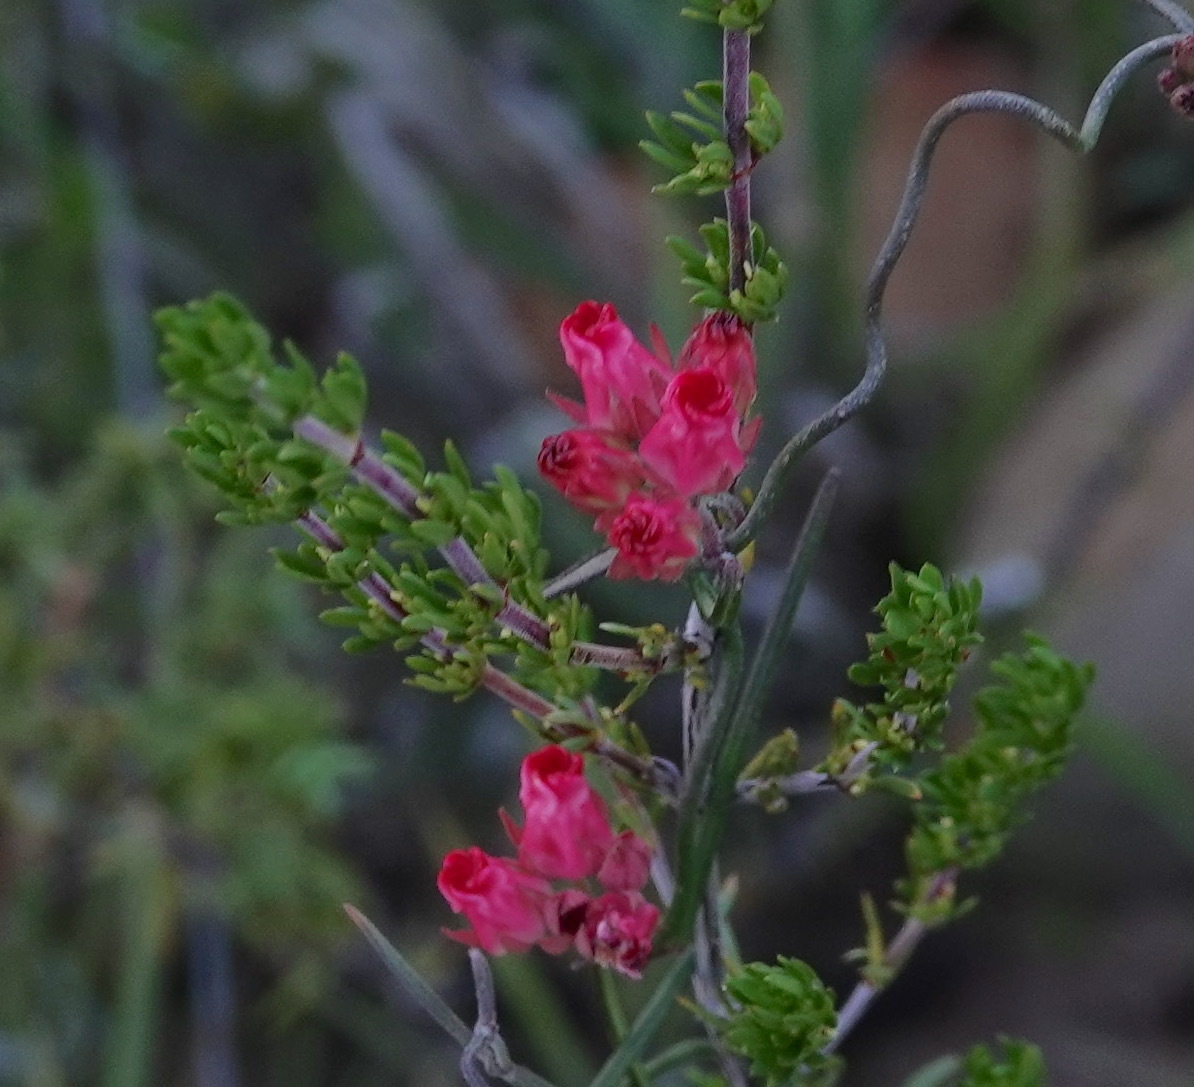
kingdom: Plantae
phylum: Tracheophyta
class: Magnoliopsida
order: Gentianales
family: Apocynaceae
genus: Microloma
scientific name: Microloma tenuifolium
